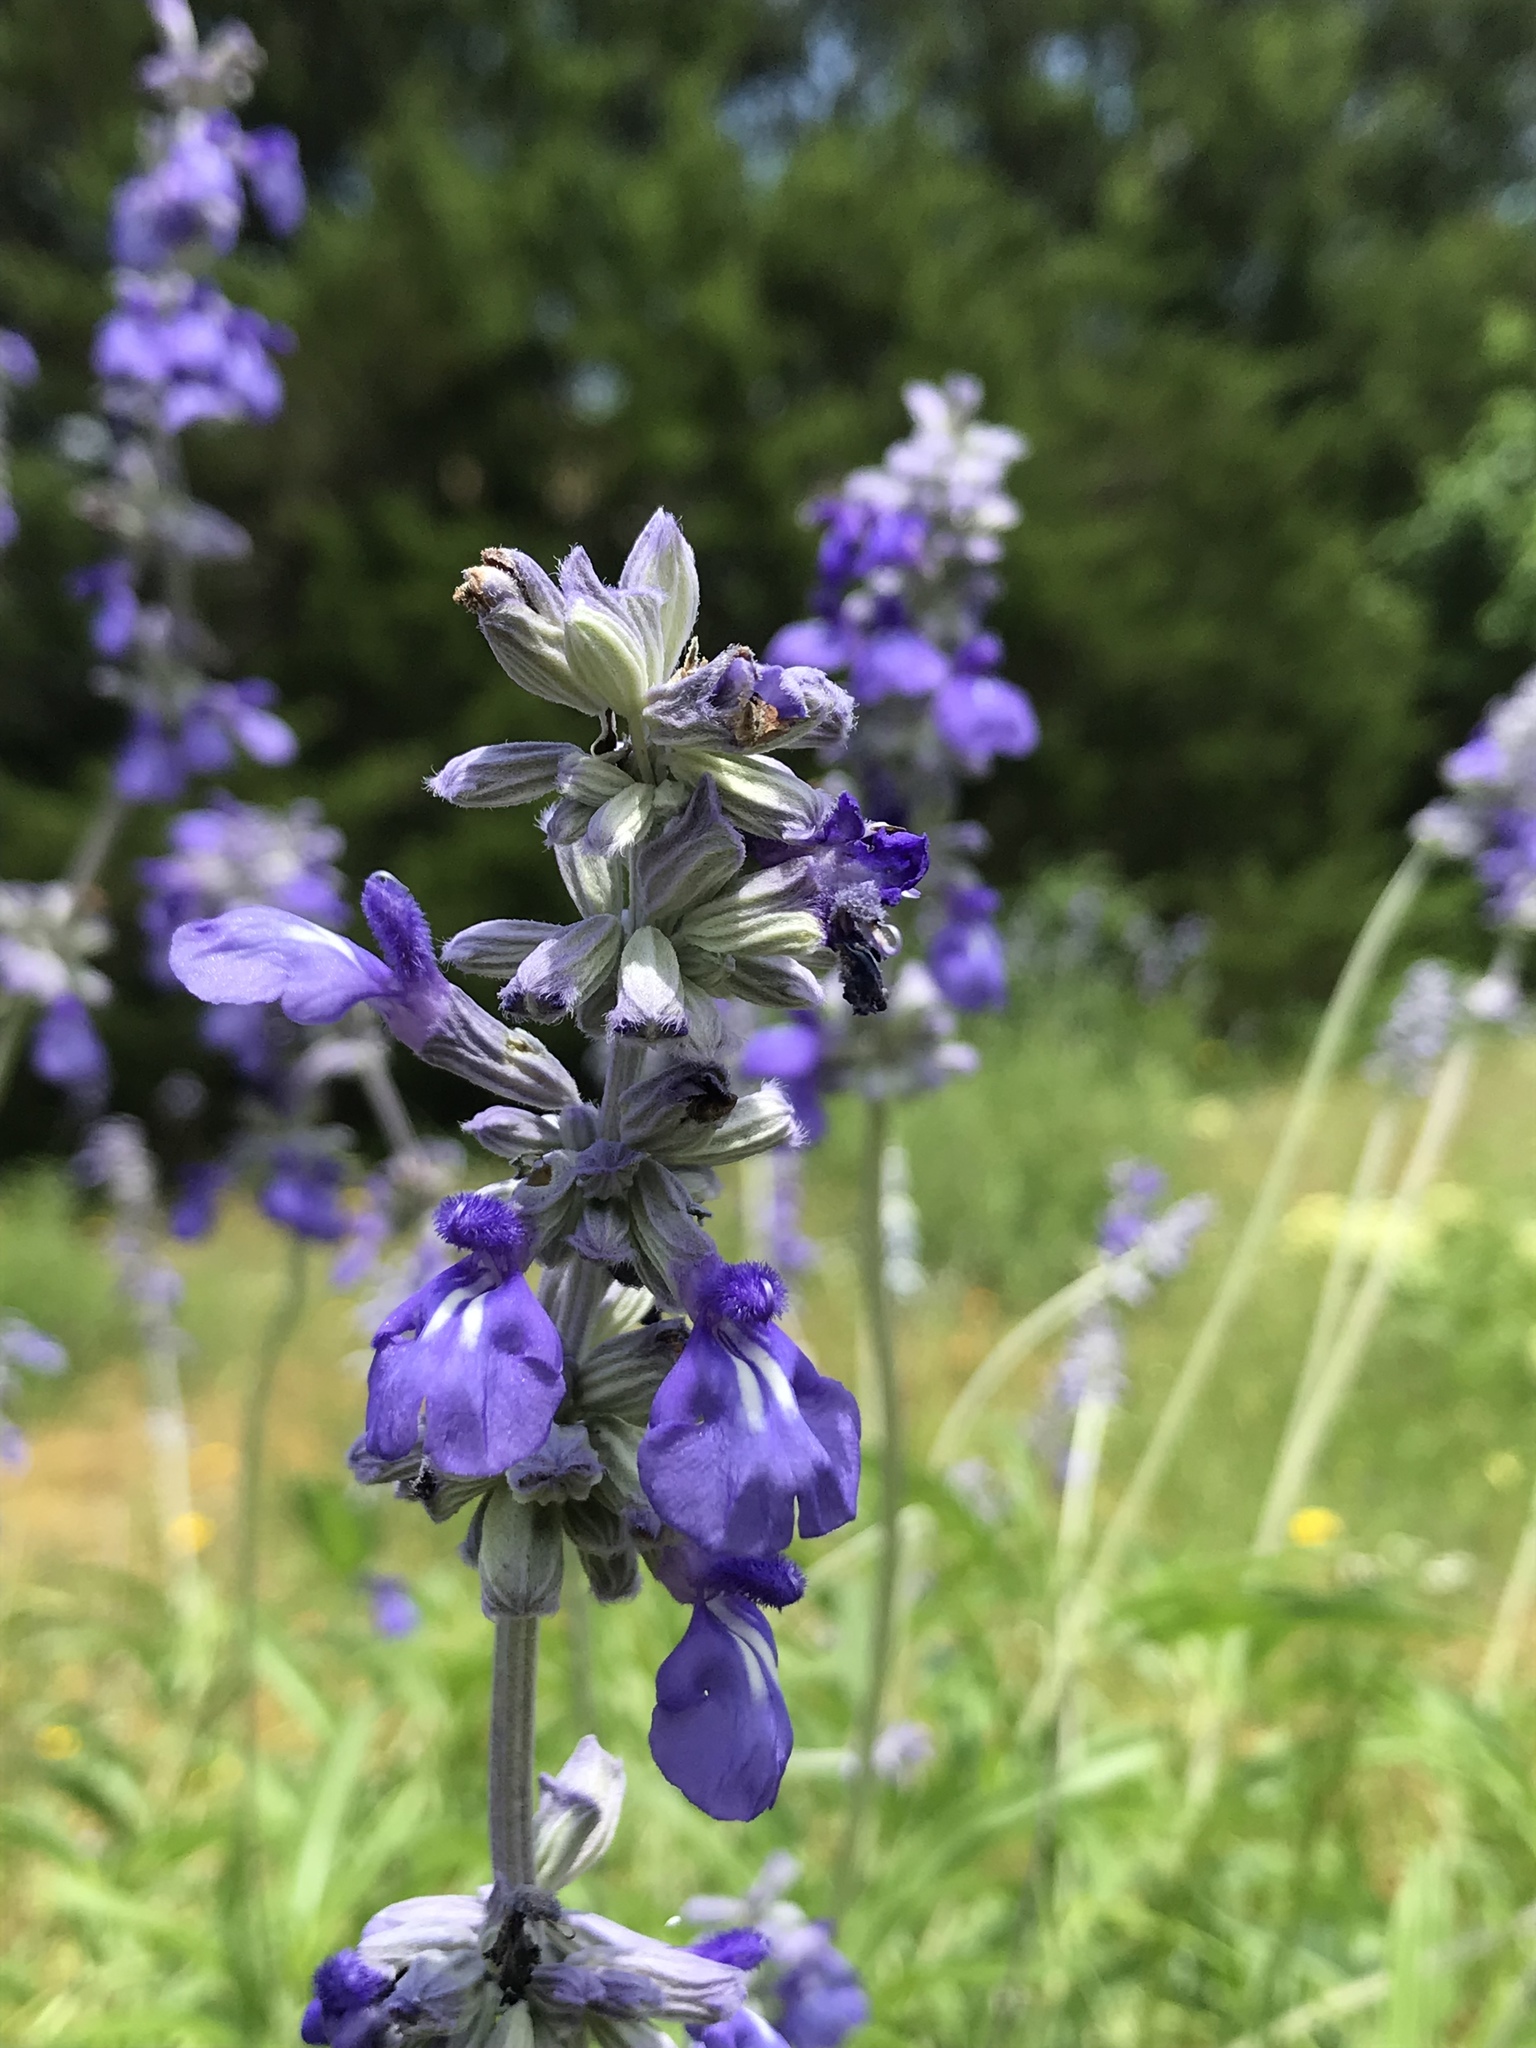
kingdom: Plantae
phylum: Tracheophyta
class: Magnoliopsida
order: Lamiales
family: Lamiaceae
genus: Salvia
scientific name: Salvia farinacea
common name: Mealy sage
